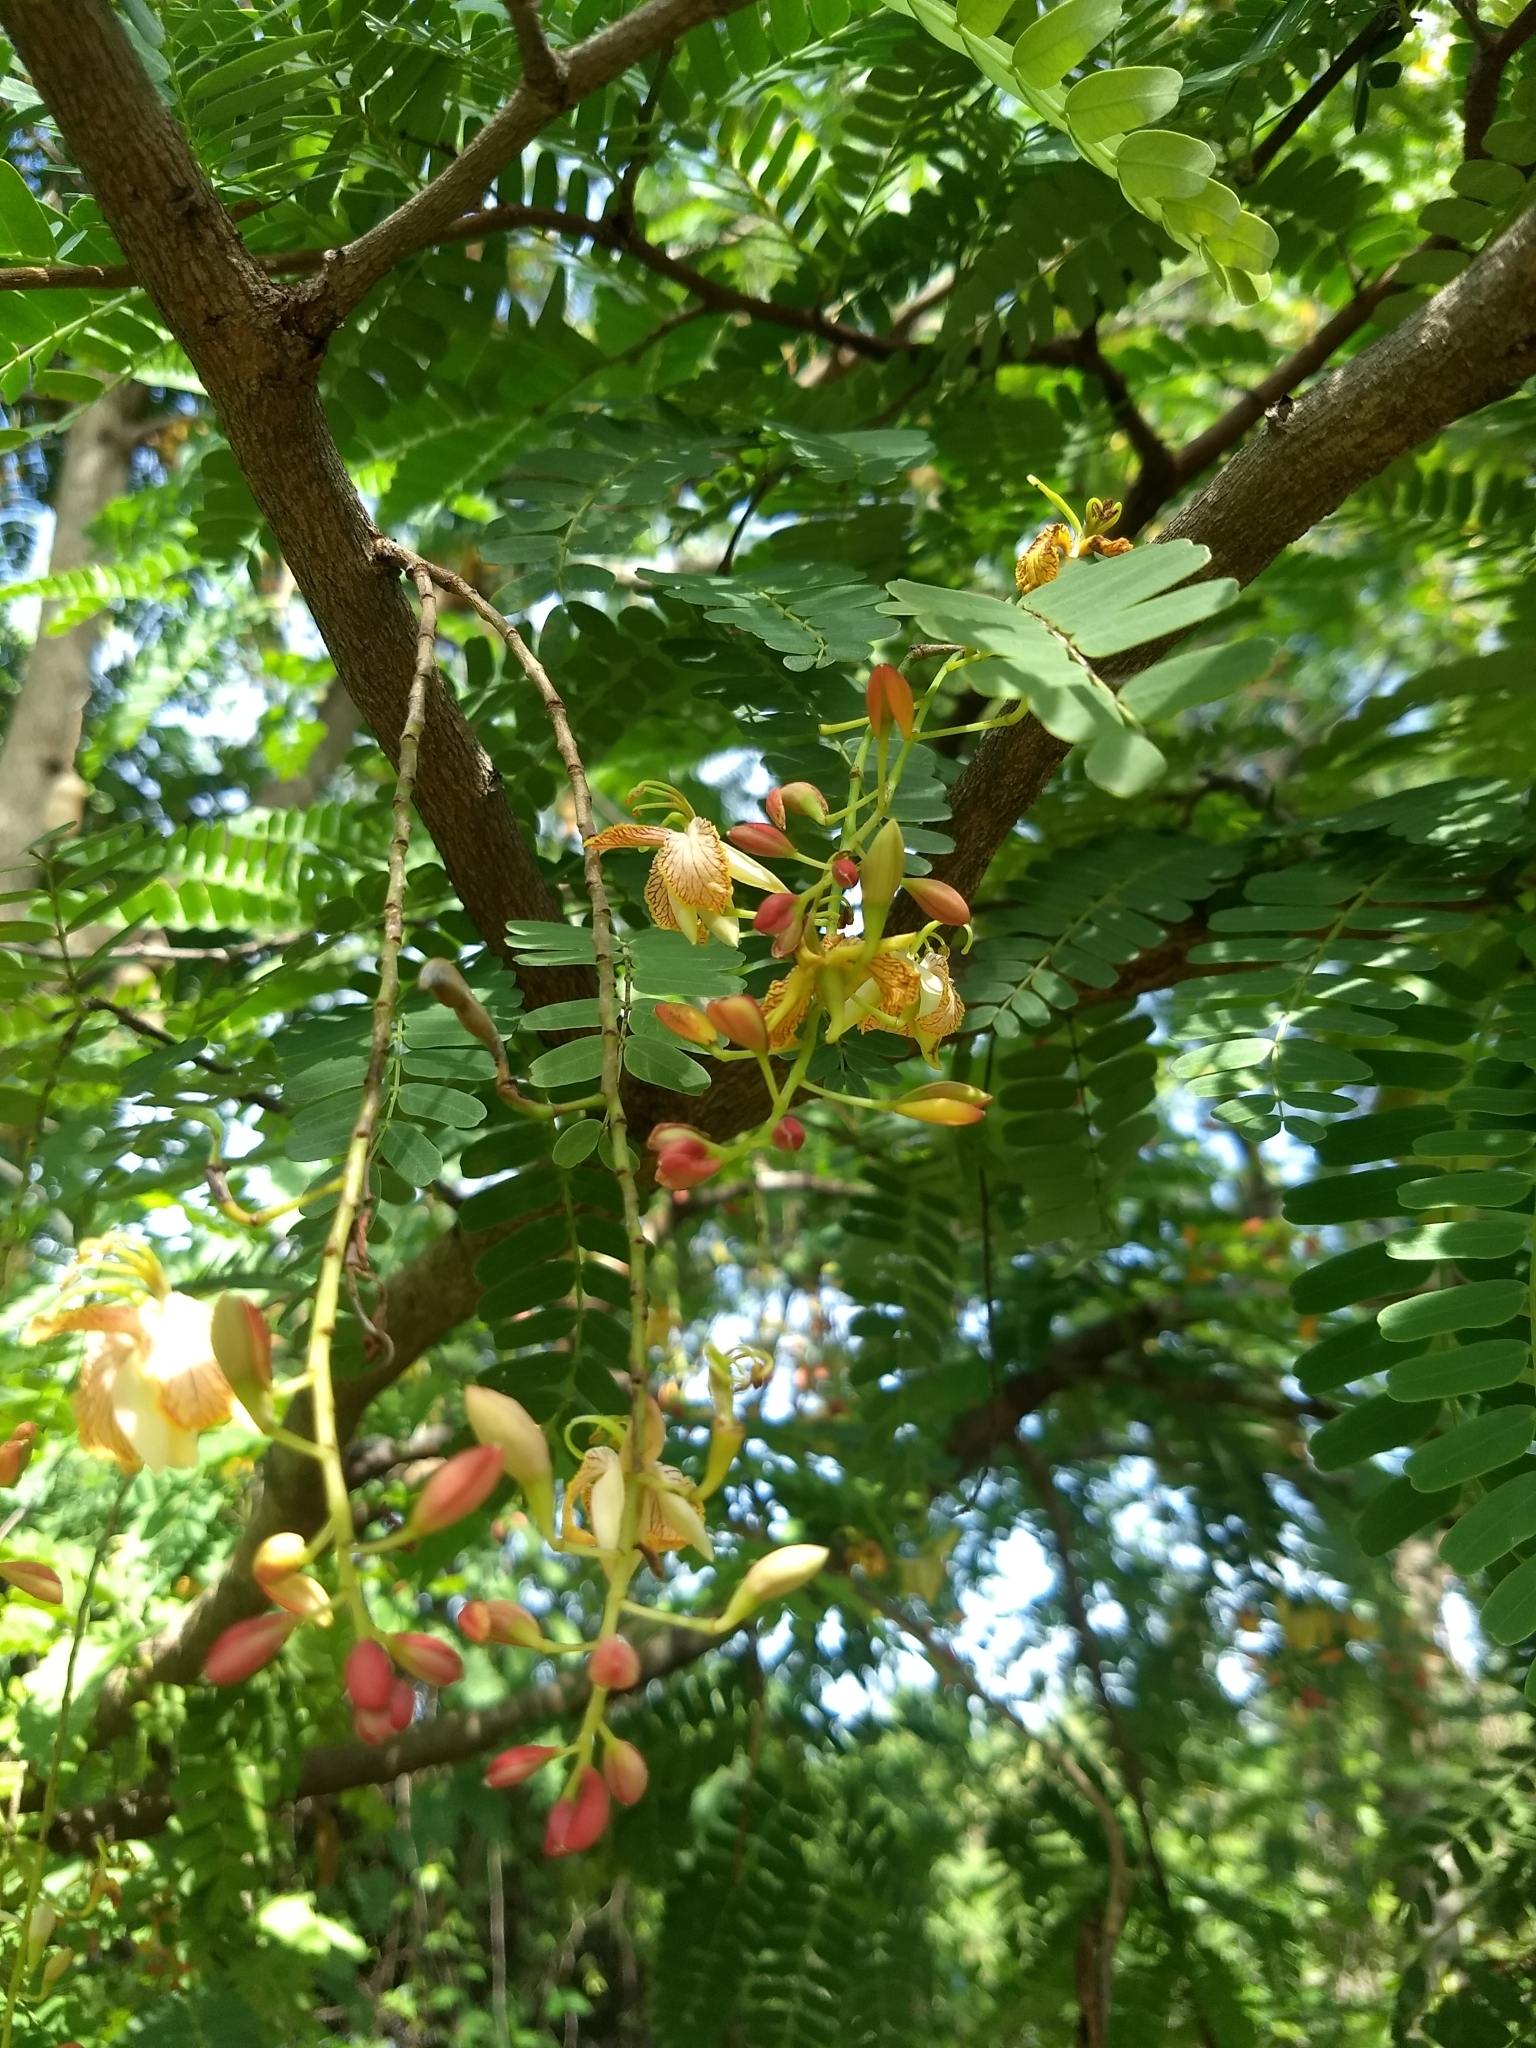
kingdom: Plantae
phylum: Tracheophyta
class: Magnoliopsida
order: Fabales
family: Fabaceae
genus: Tamarindus
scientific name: Tamarindus indica
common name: Tamarind
